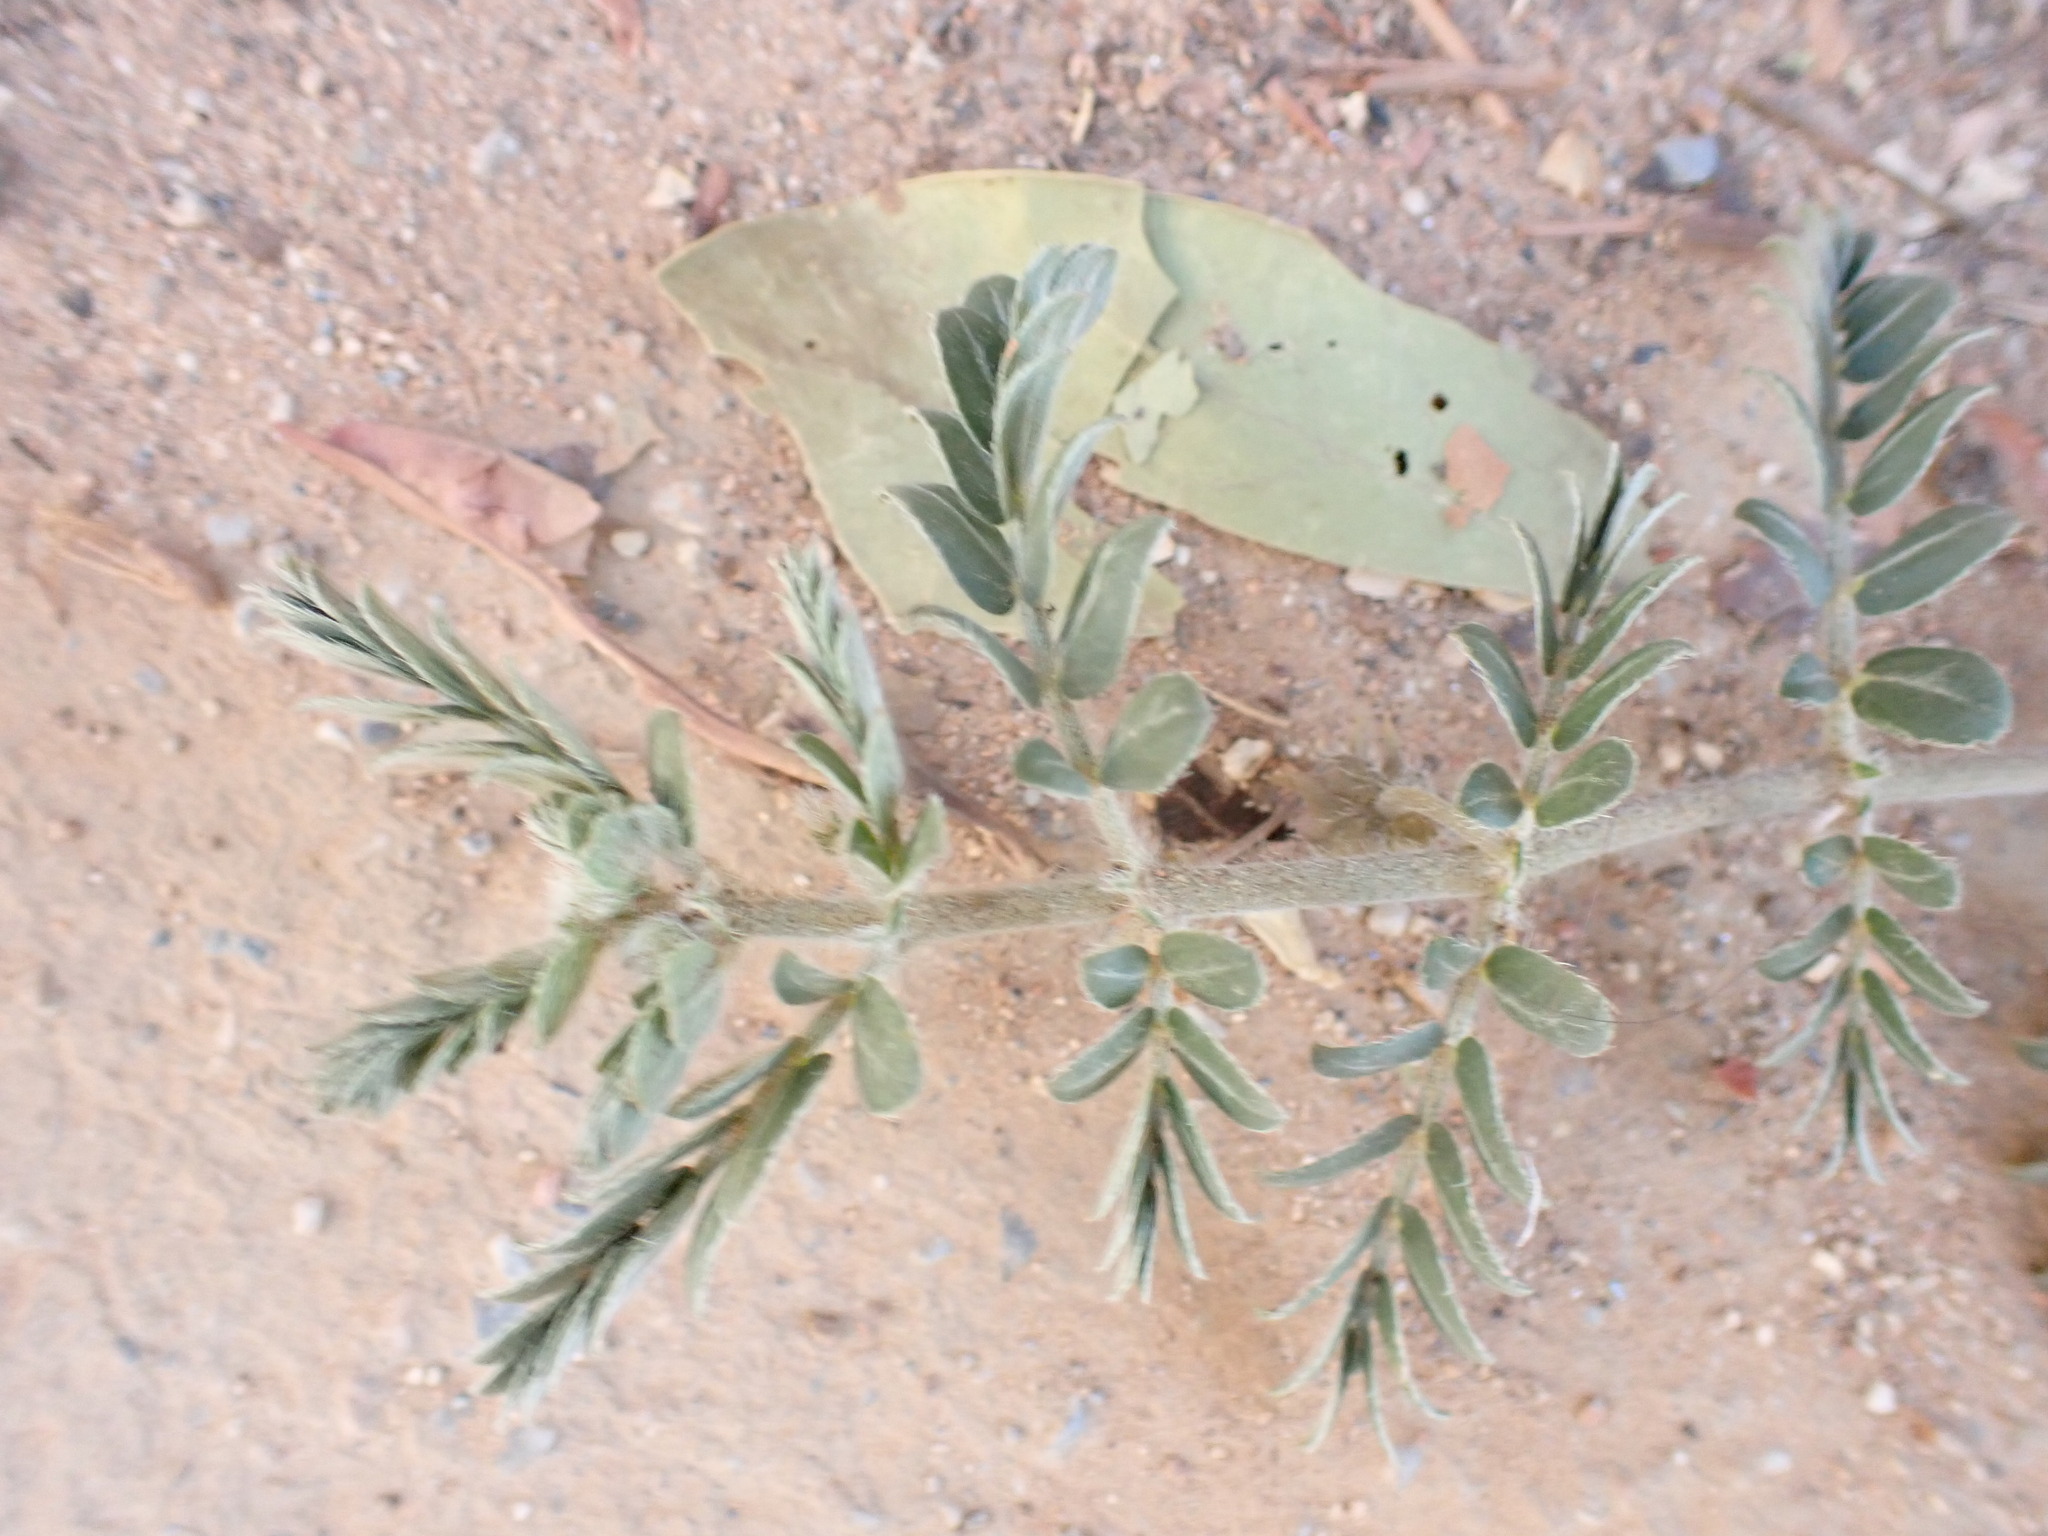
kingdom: Plantae
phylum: Tracheophyta
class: Magnoliopsida
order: Zygophyllales
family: Zygophyllaceae
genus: Tribulus
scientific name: Tribulus terrestris
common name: Puncturevine
